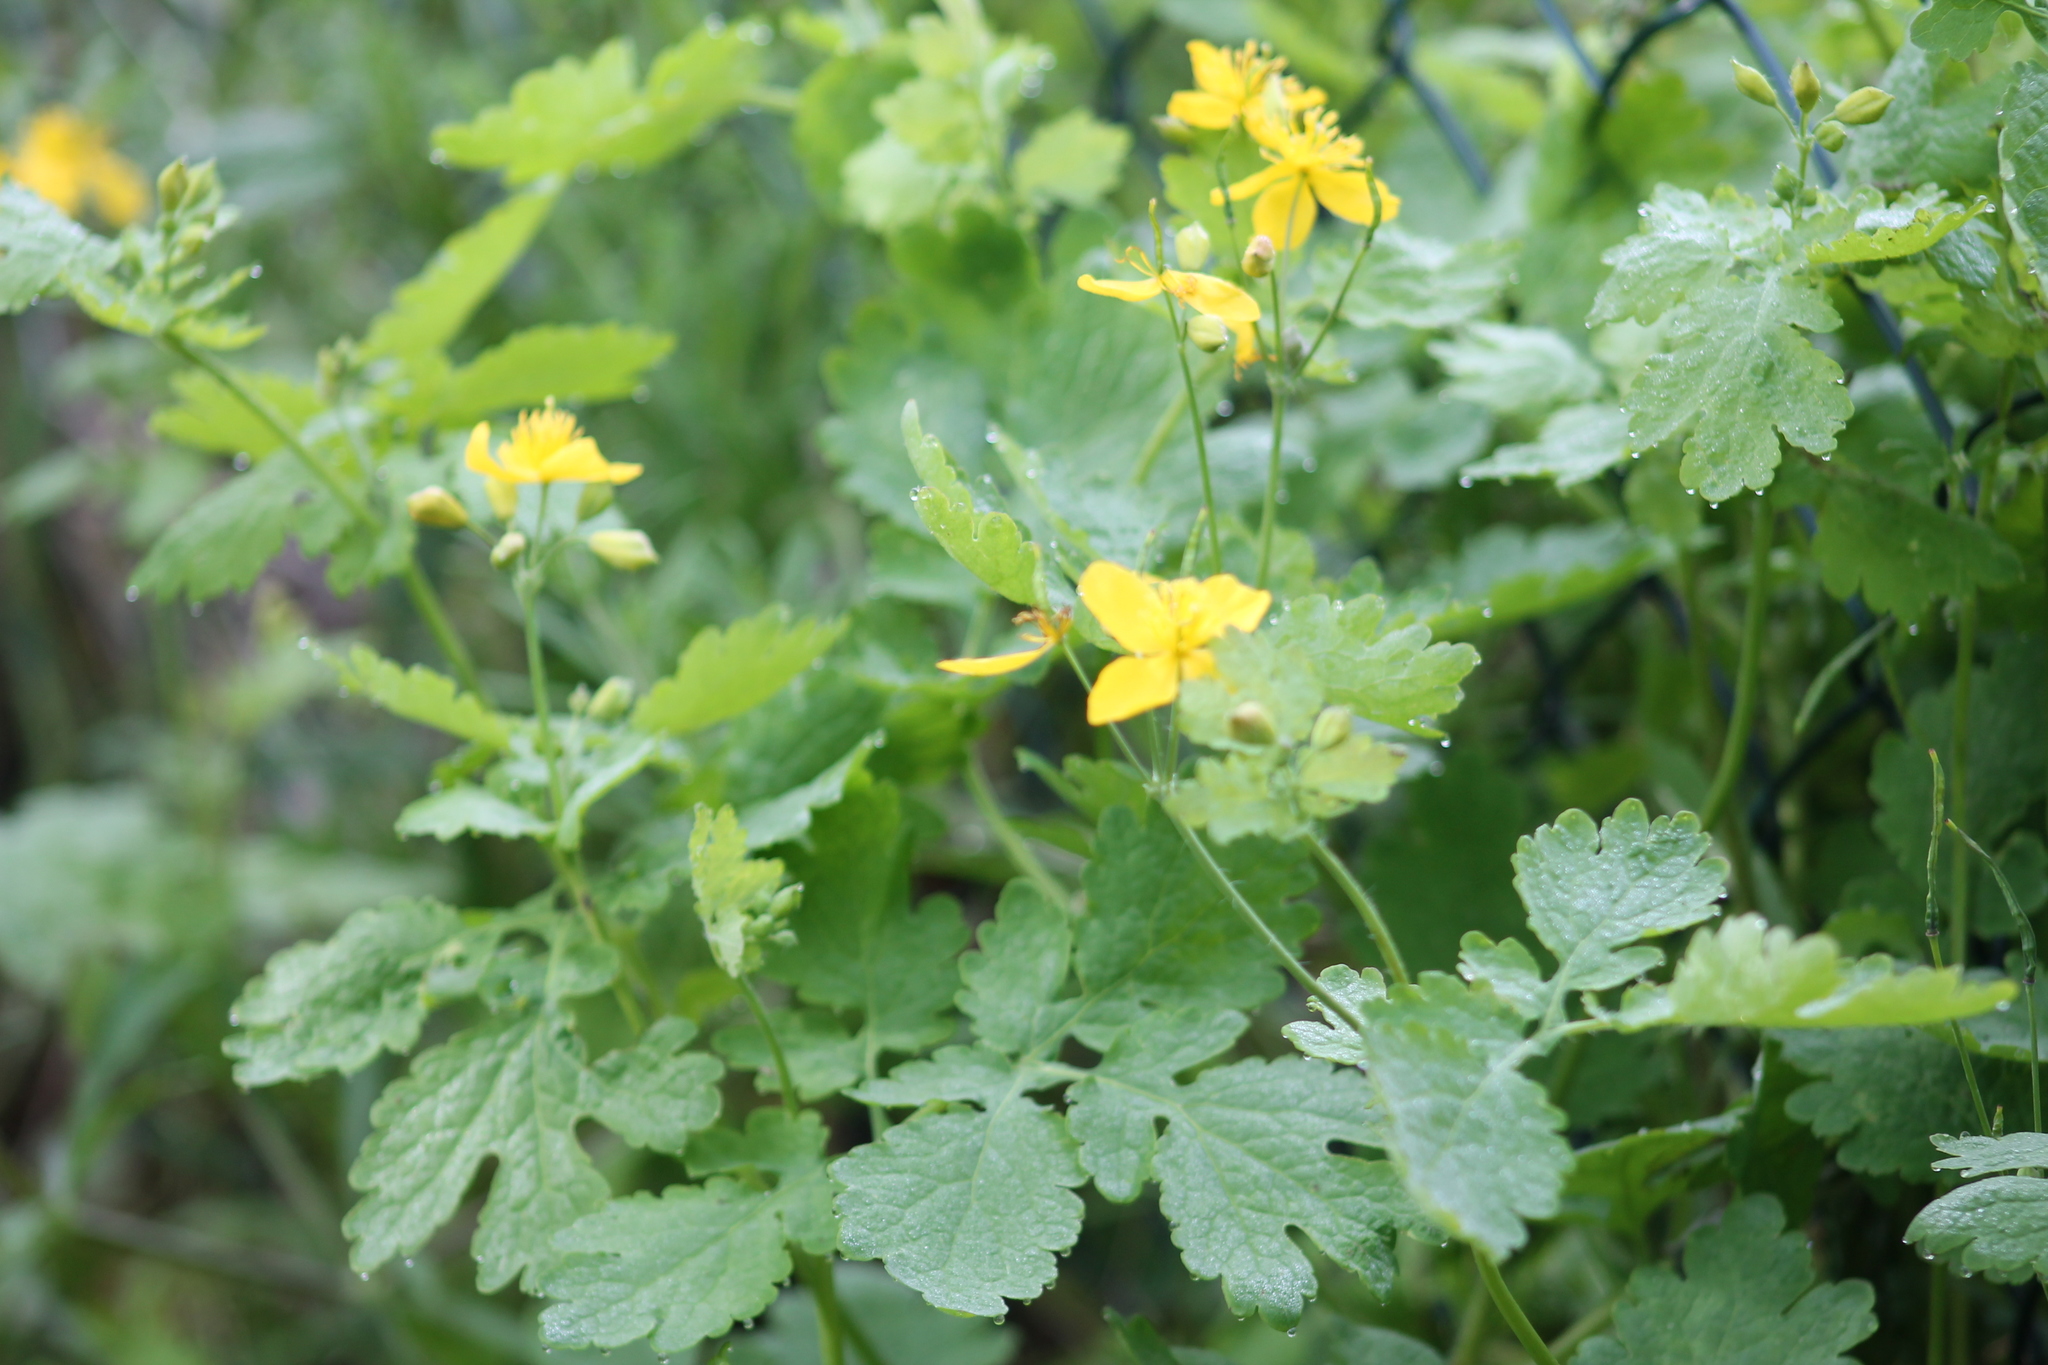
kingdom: Plantae
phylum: Tracheophyta
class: Magnoliopsida
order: Ranunculales
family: Papaveraceae
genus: Chelidonium
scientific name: Chelidonium majus
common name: Greater celandine
